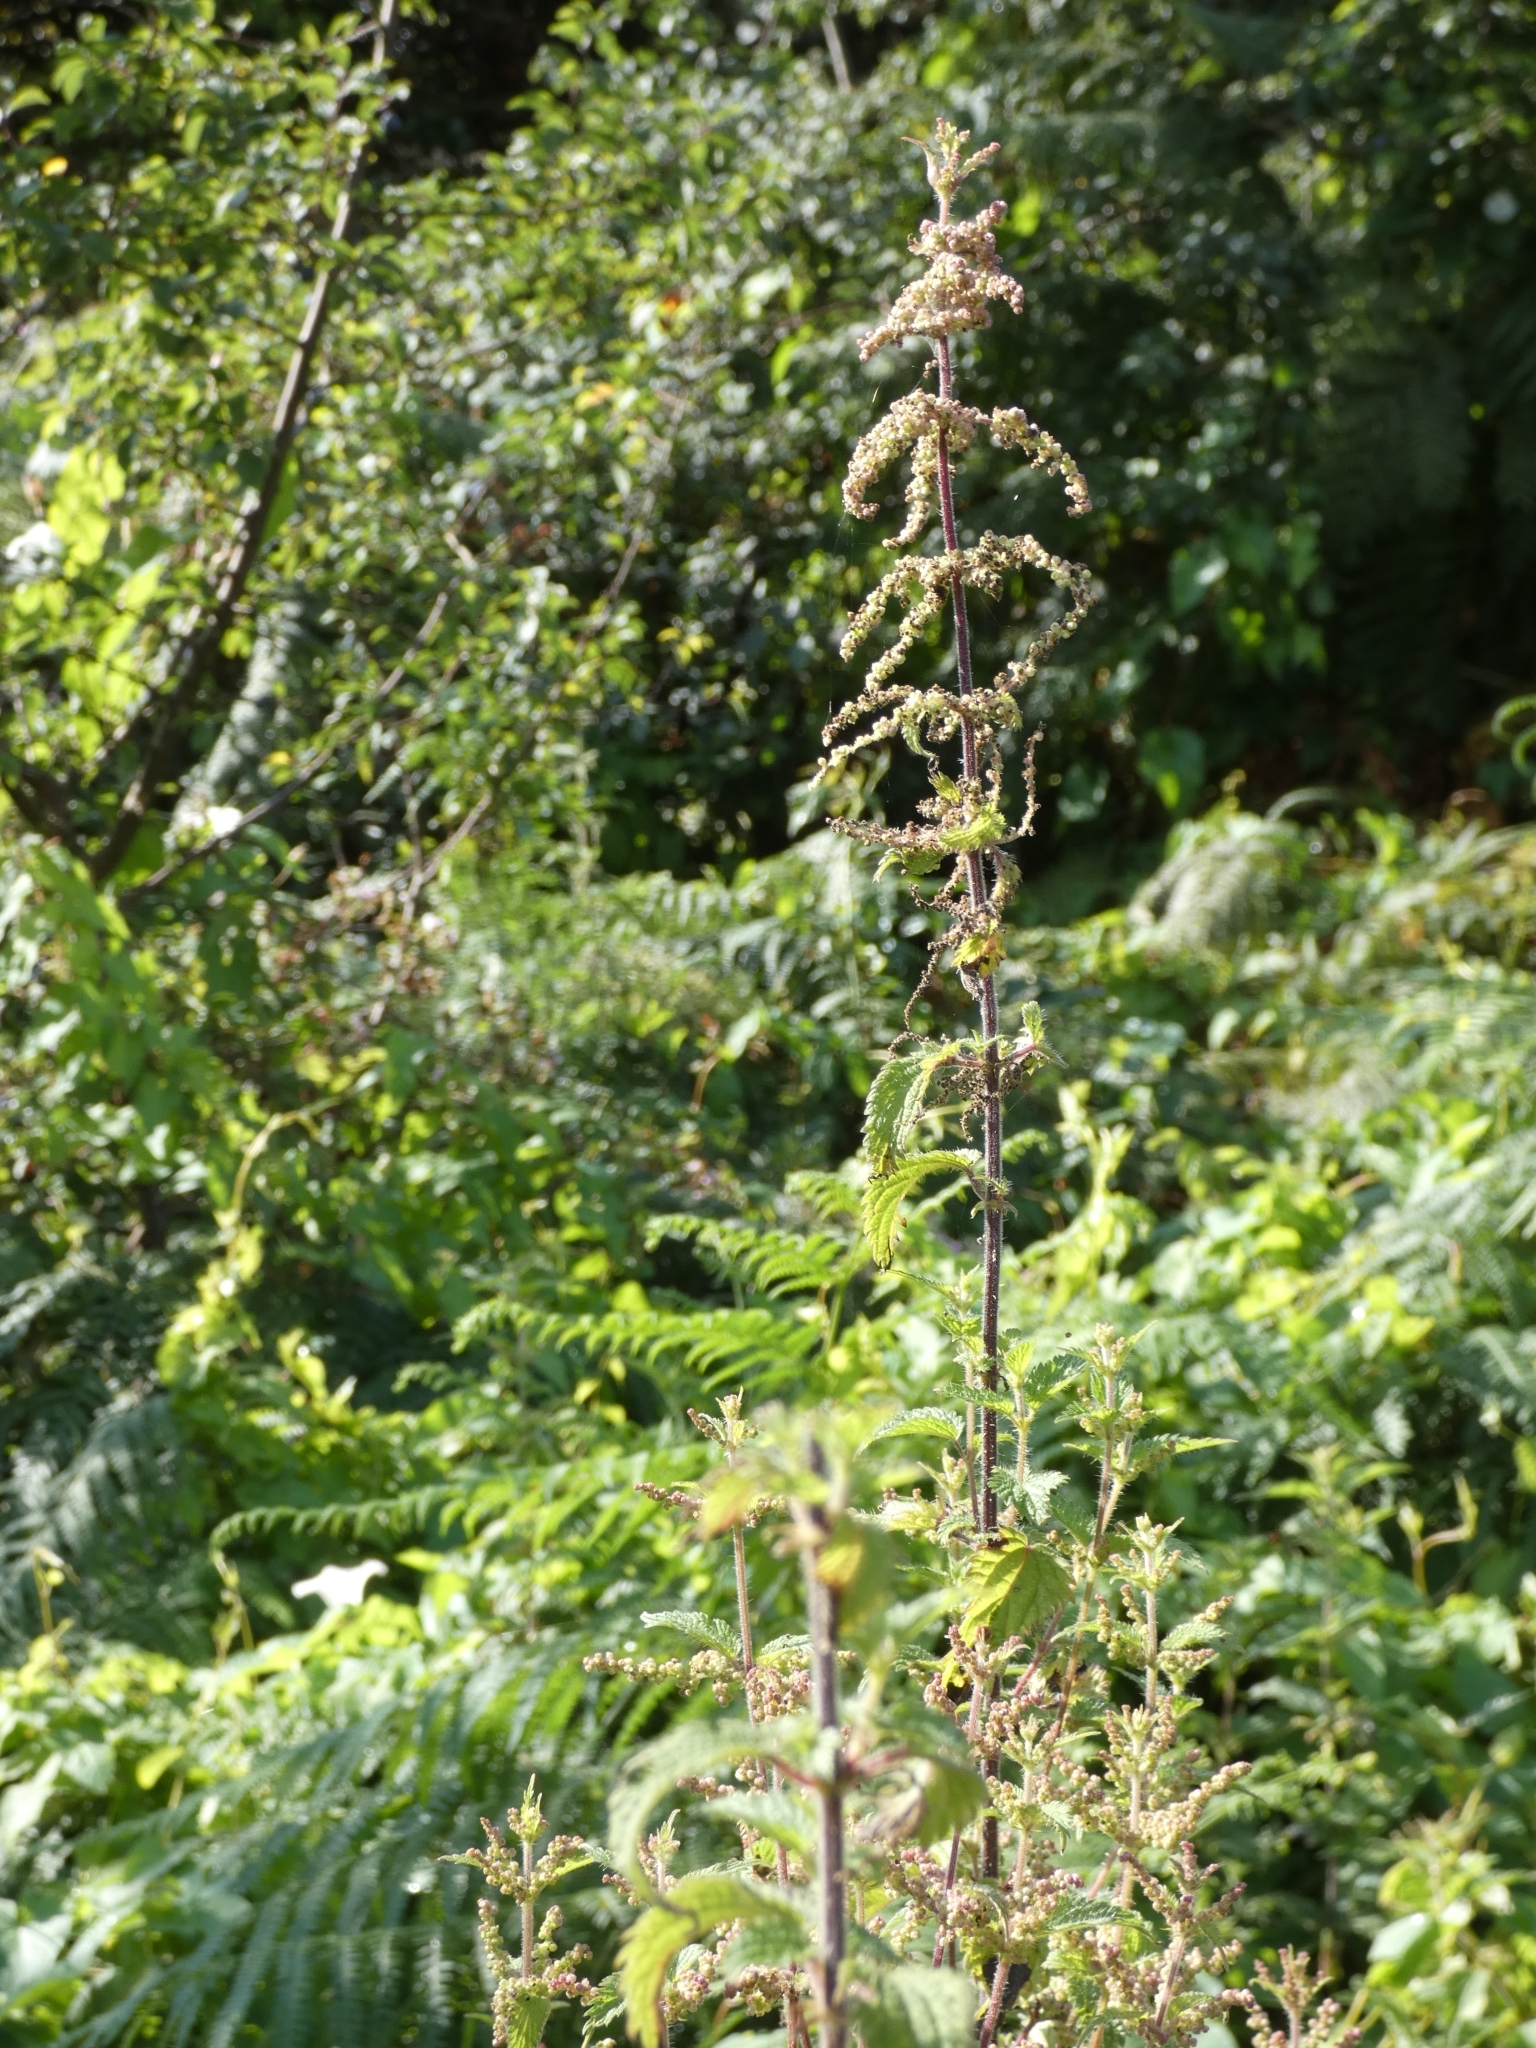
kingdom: Plantae
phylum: Tracheophyta
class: Magnoliopsida
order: Rosales
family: Urticaceae
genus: Urtica
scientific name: Urtica dioica
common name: Common nettle
